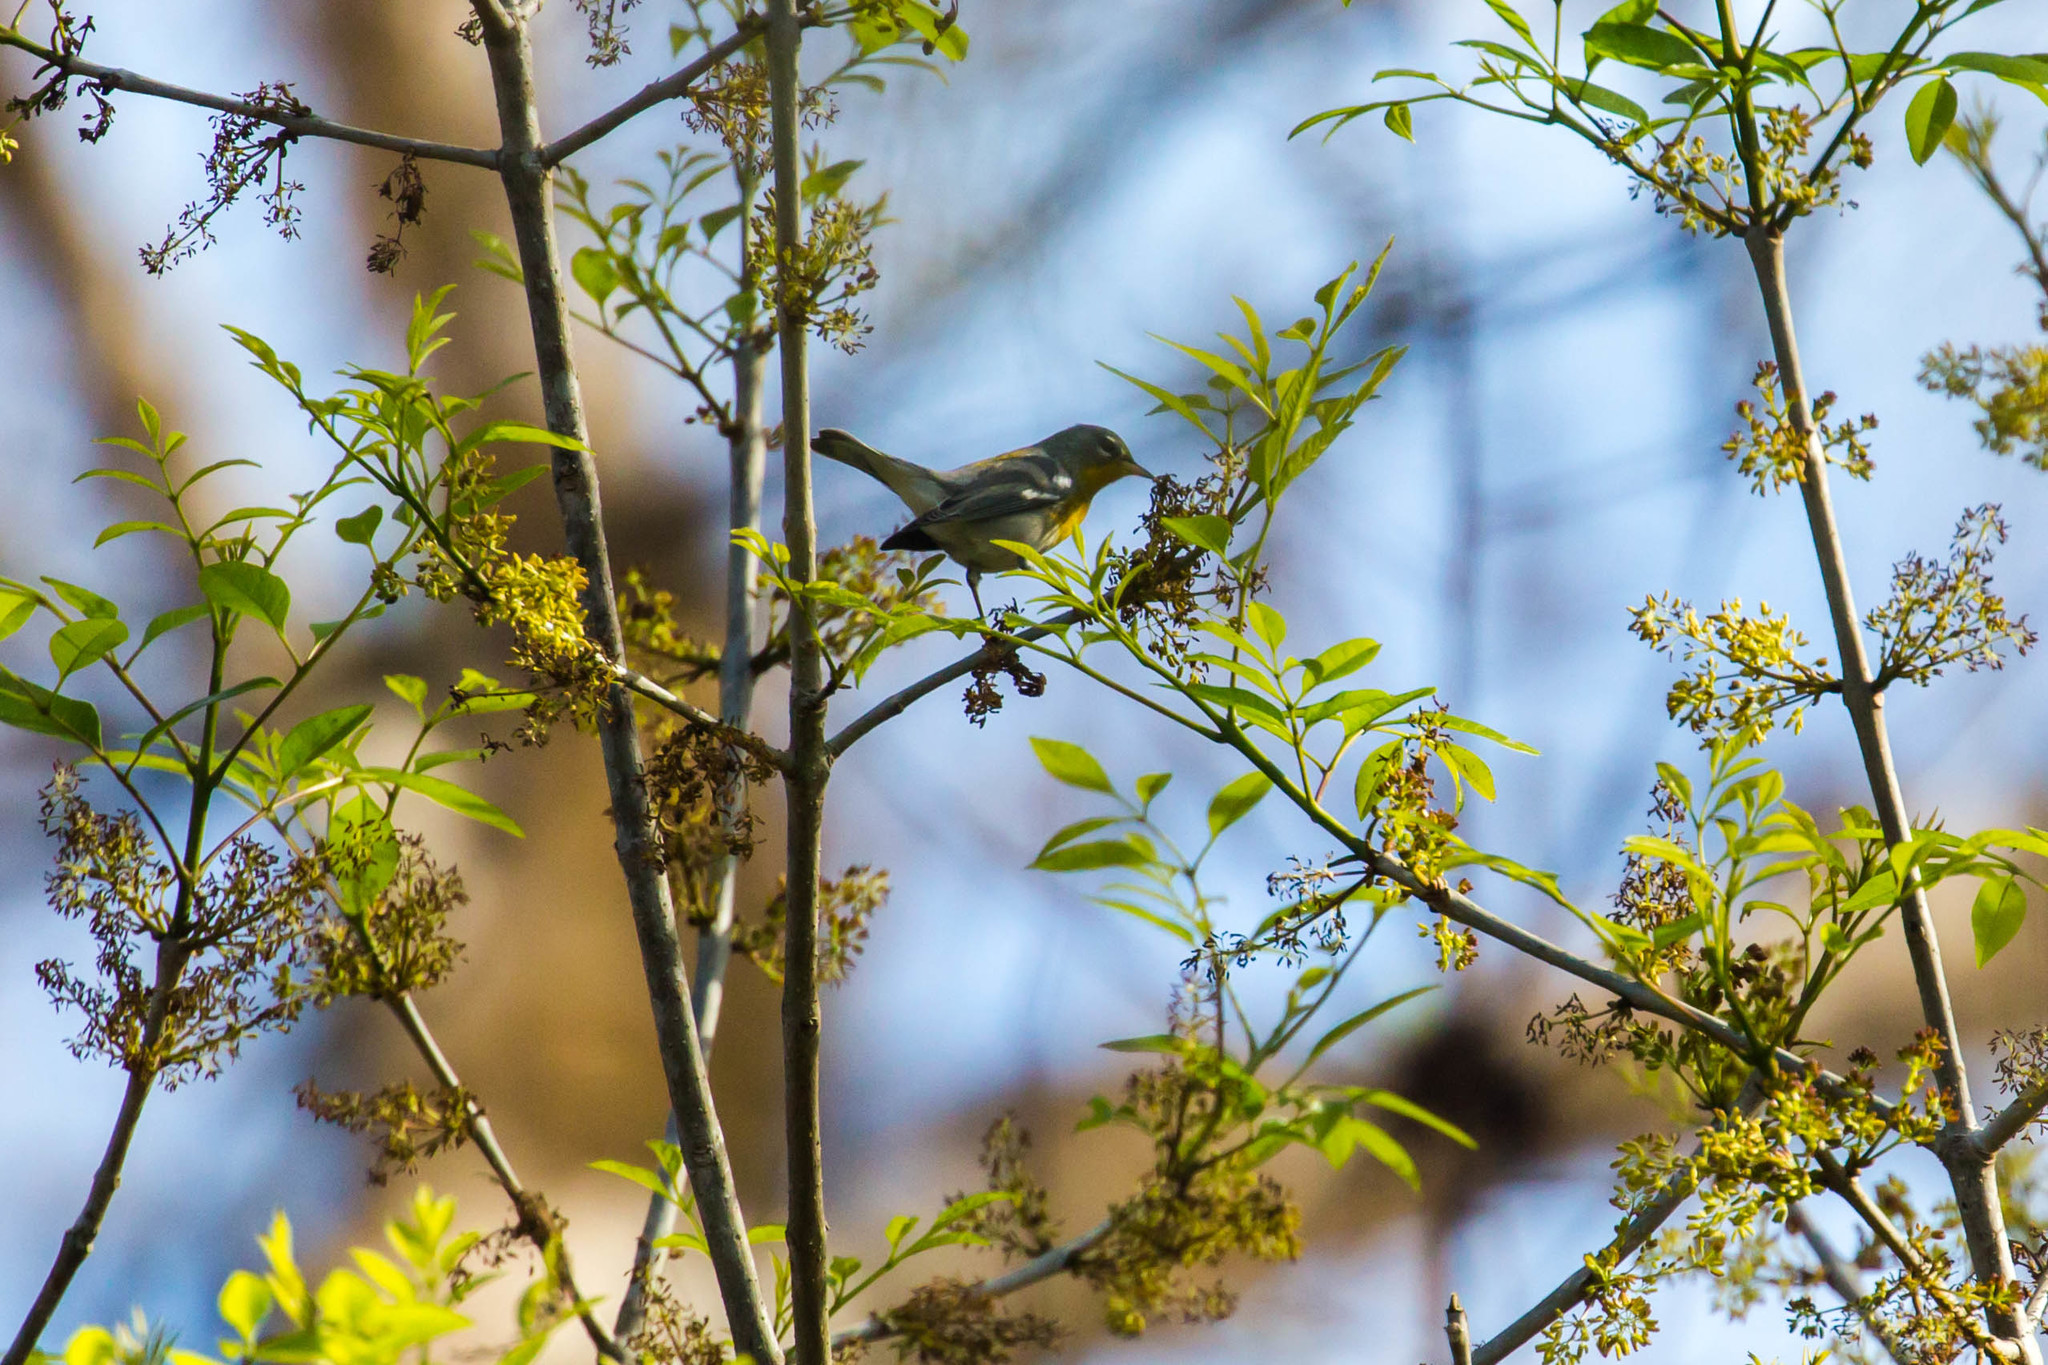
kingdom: Animalia
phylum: Chordata
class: Aves
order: Passeriformes
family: Parulidae
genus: Setophaga
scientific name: Setophaga americana
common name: Northern parula
